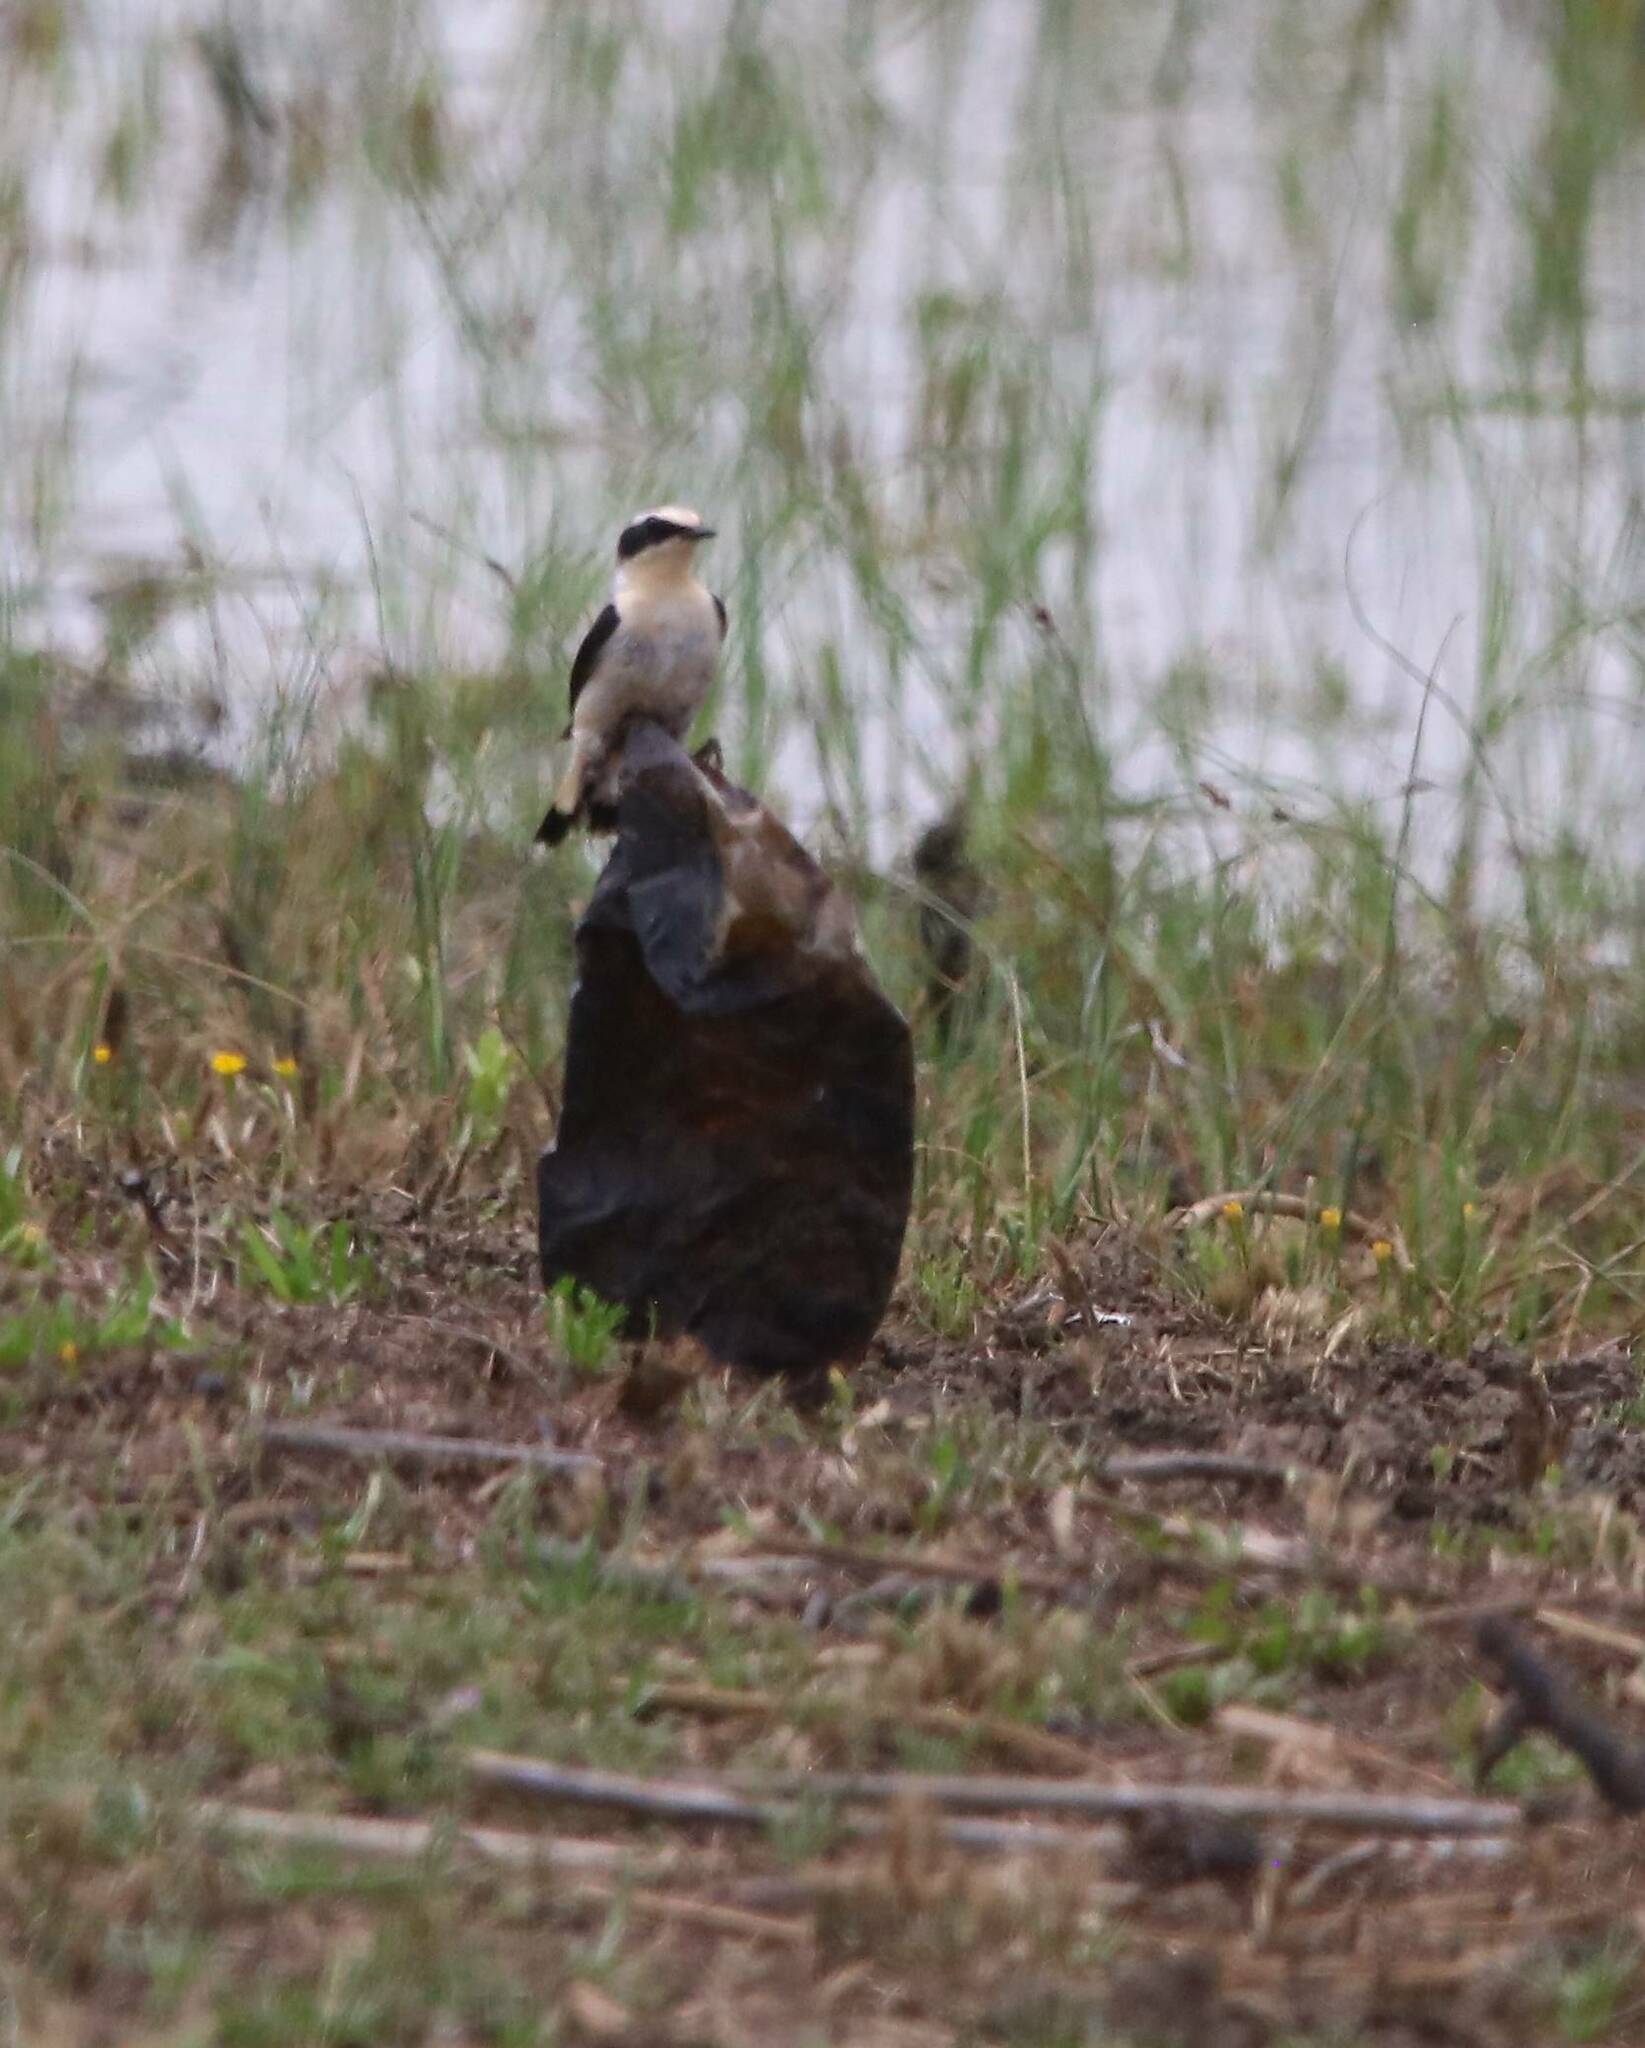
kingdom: Animalia
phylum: Chordata
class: Aves
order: Passeriformes
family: Muscicapidae
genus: Oenanthe
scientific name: Oenanthe hispanica
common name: Black-eared wheatear
